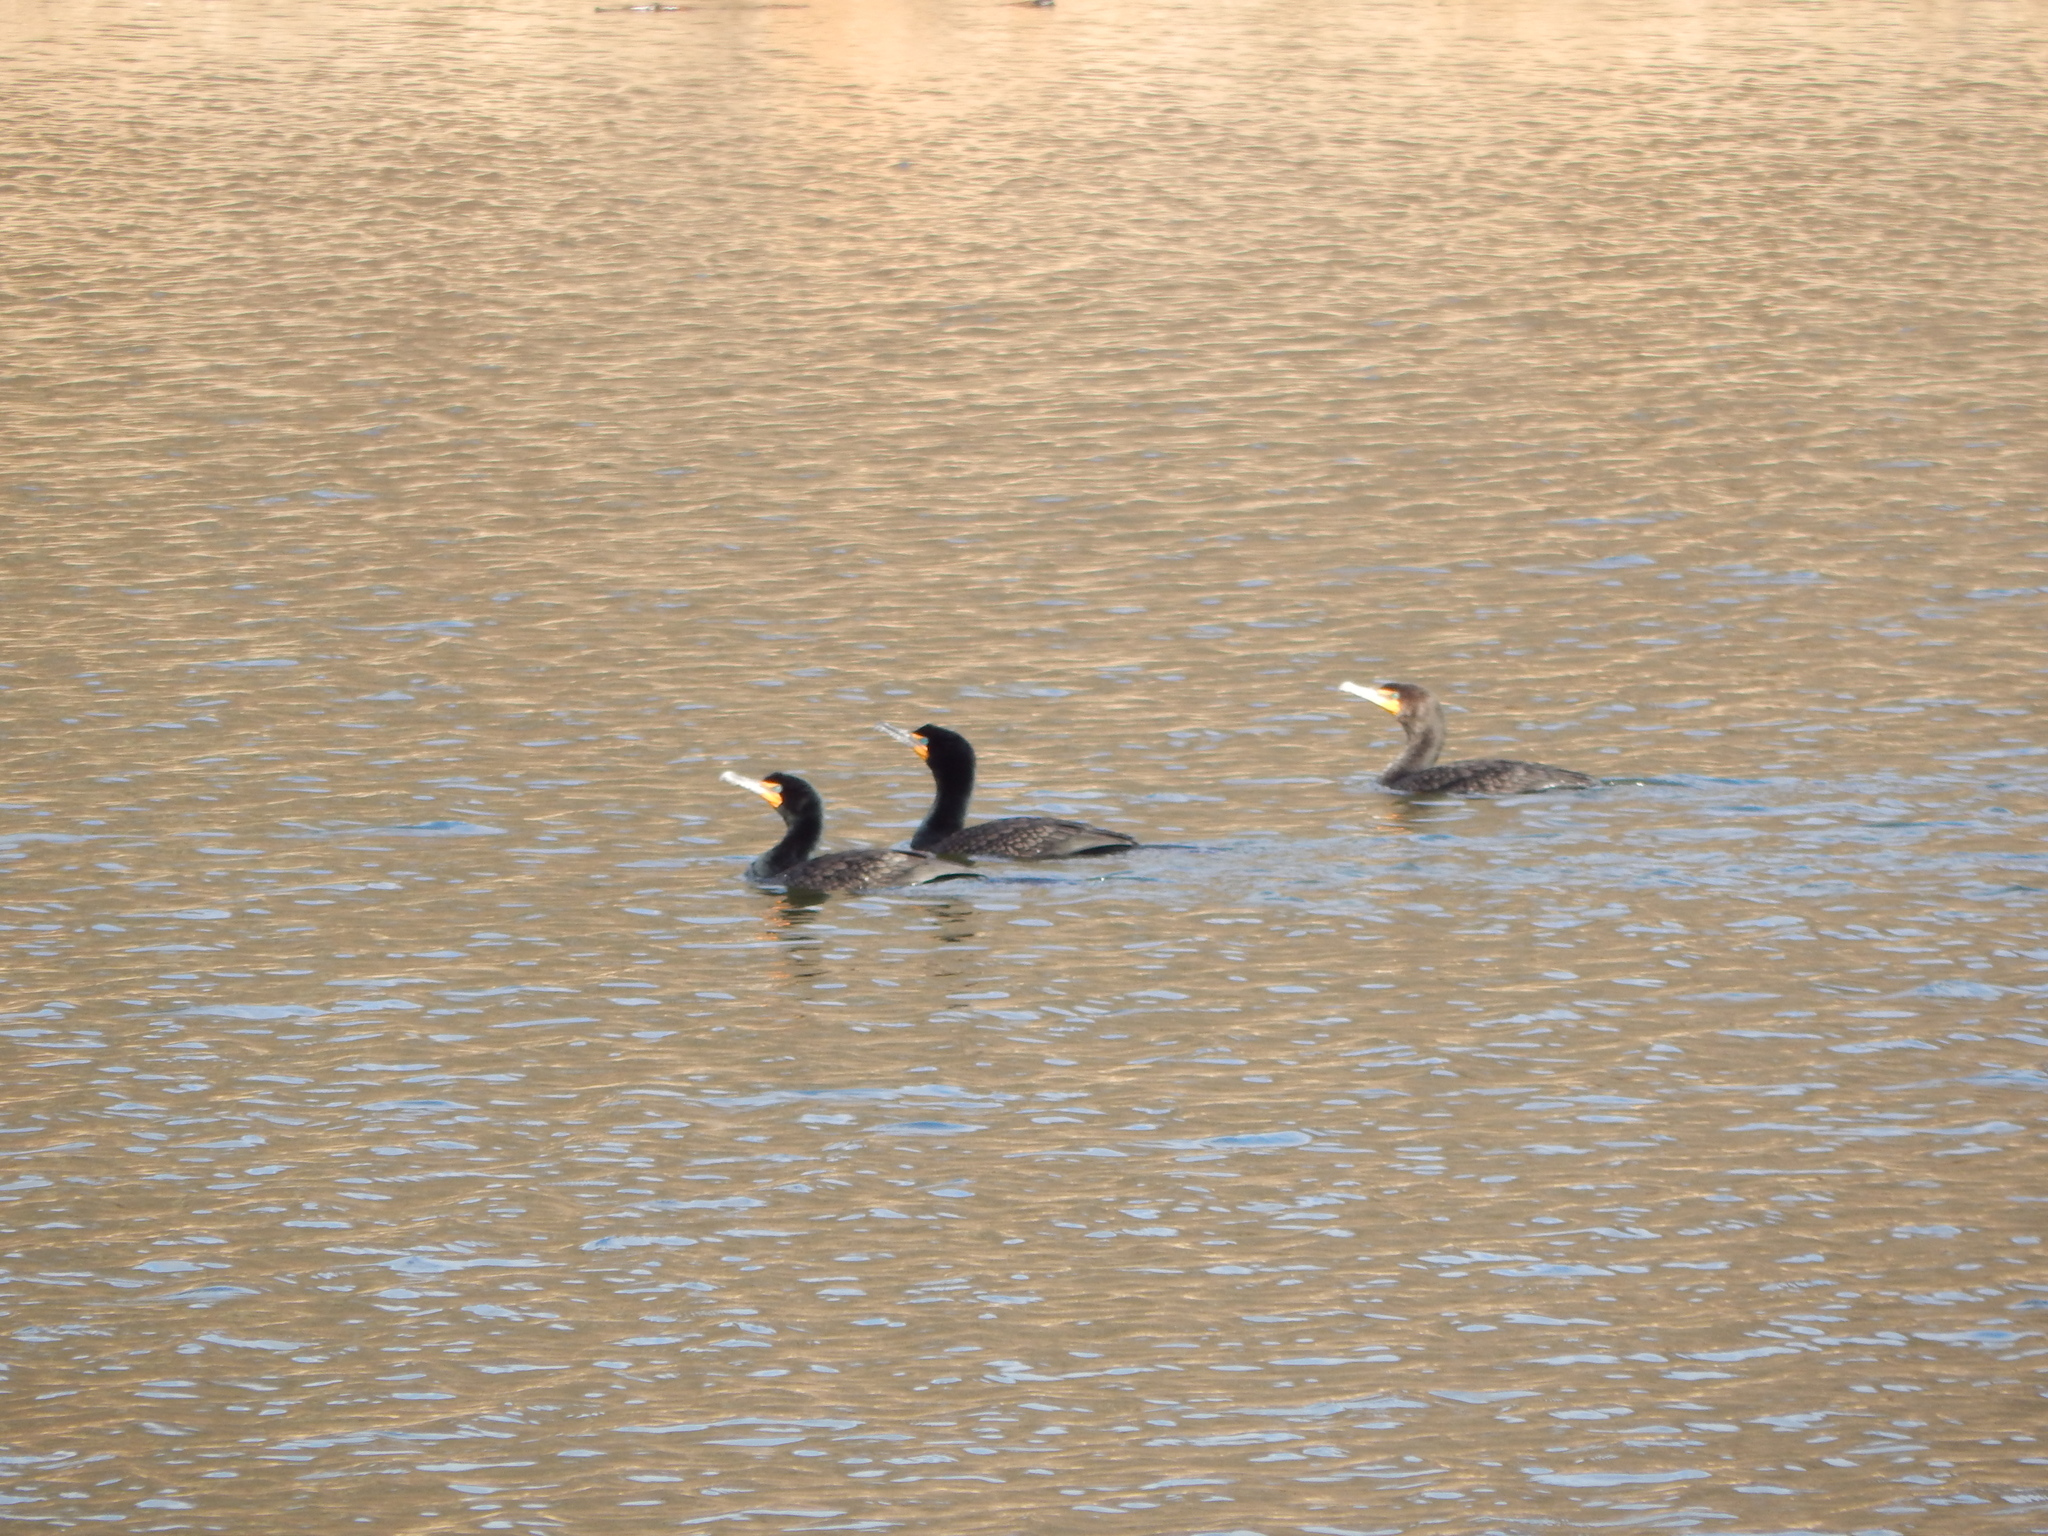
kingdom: Animalia
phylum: Chordata
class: Aves
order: Suliformes
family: Phalacrocoracidae
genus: Phalacrocorax
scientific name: Phalacrocorax auritus
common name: Double-crested cormorant
